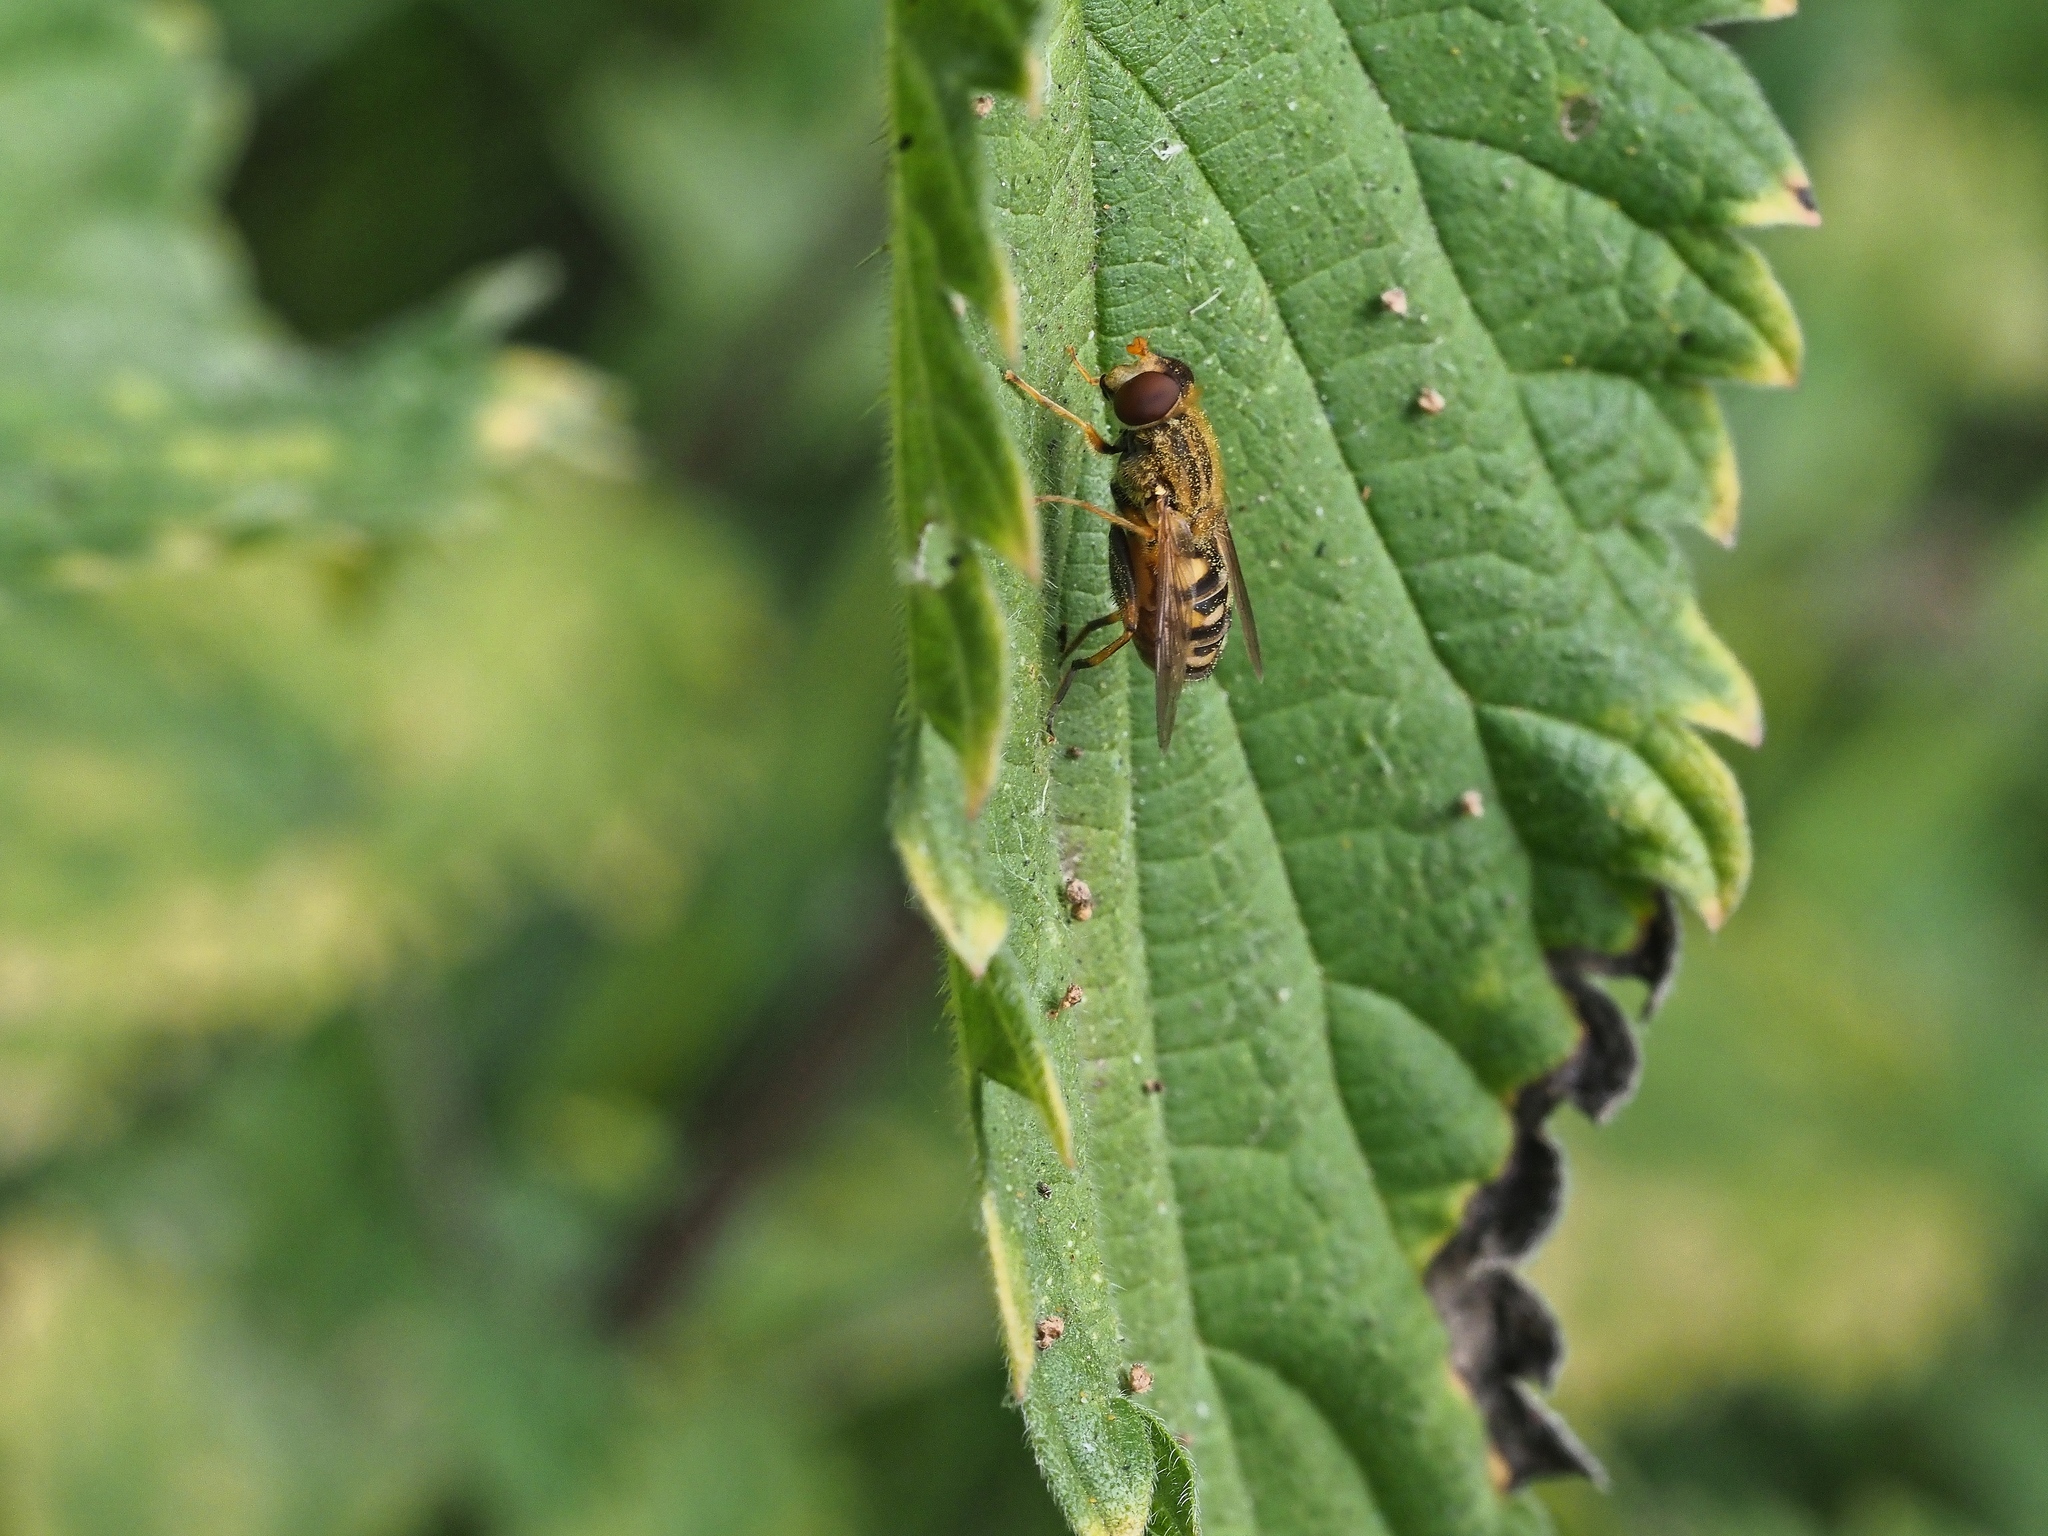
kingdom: Animalia
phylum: Arthropoda
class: Insecta
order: Diptera
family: Syrphidae
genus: Parhelophilus
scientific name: Parhelophilus
